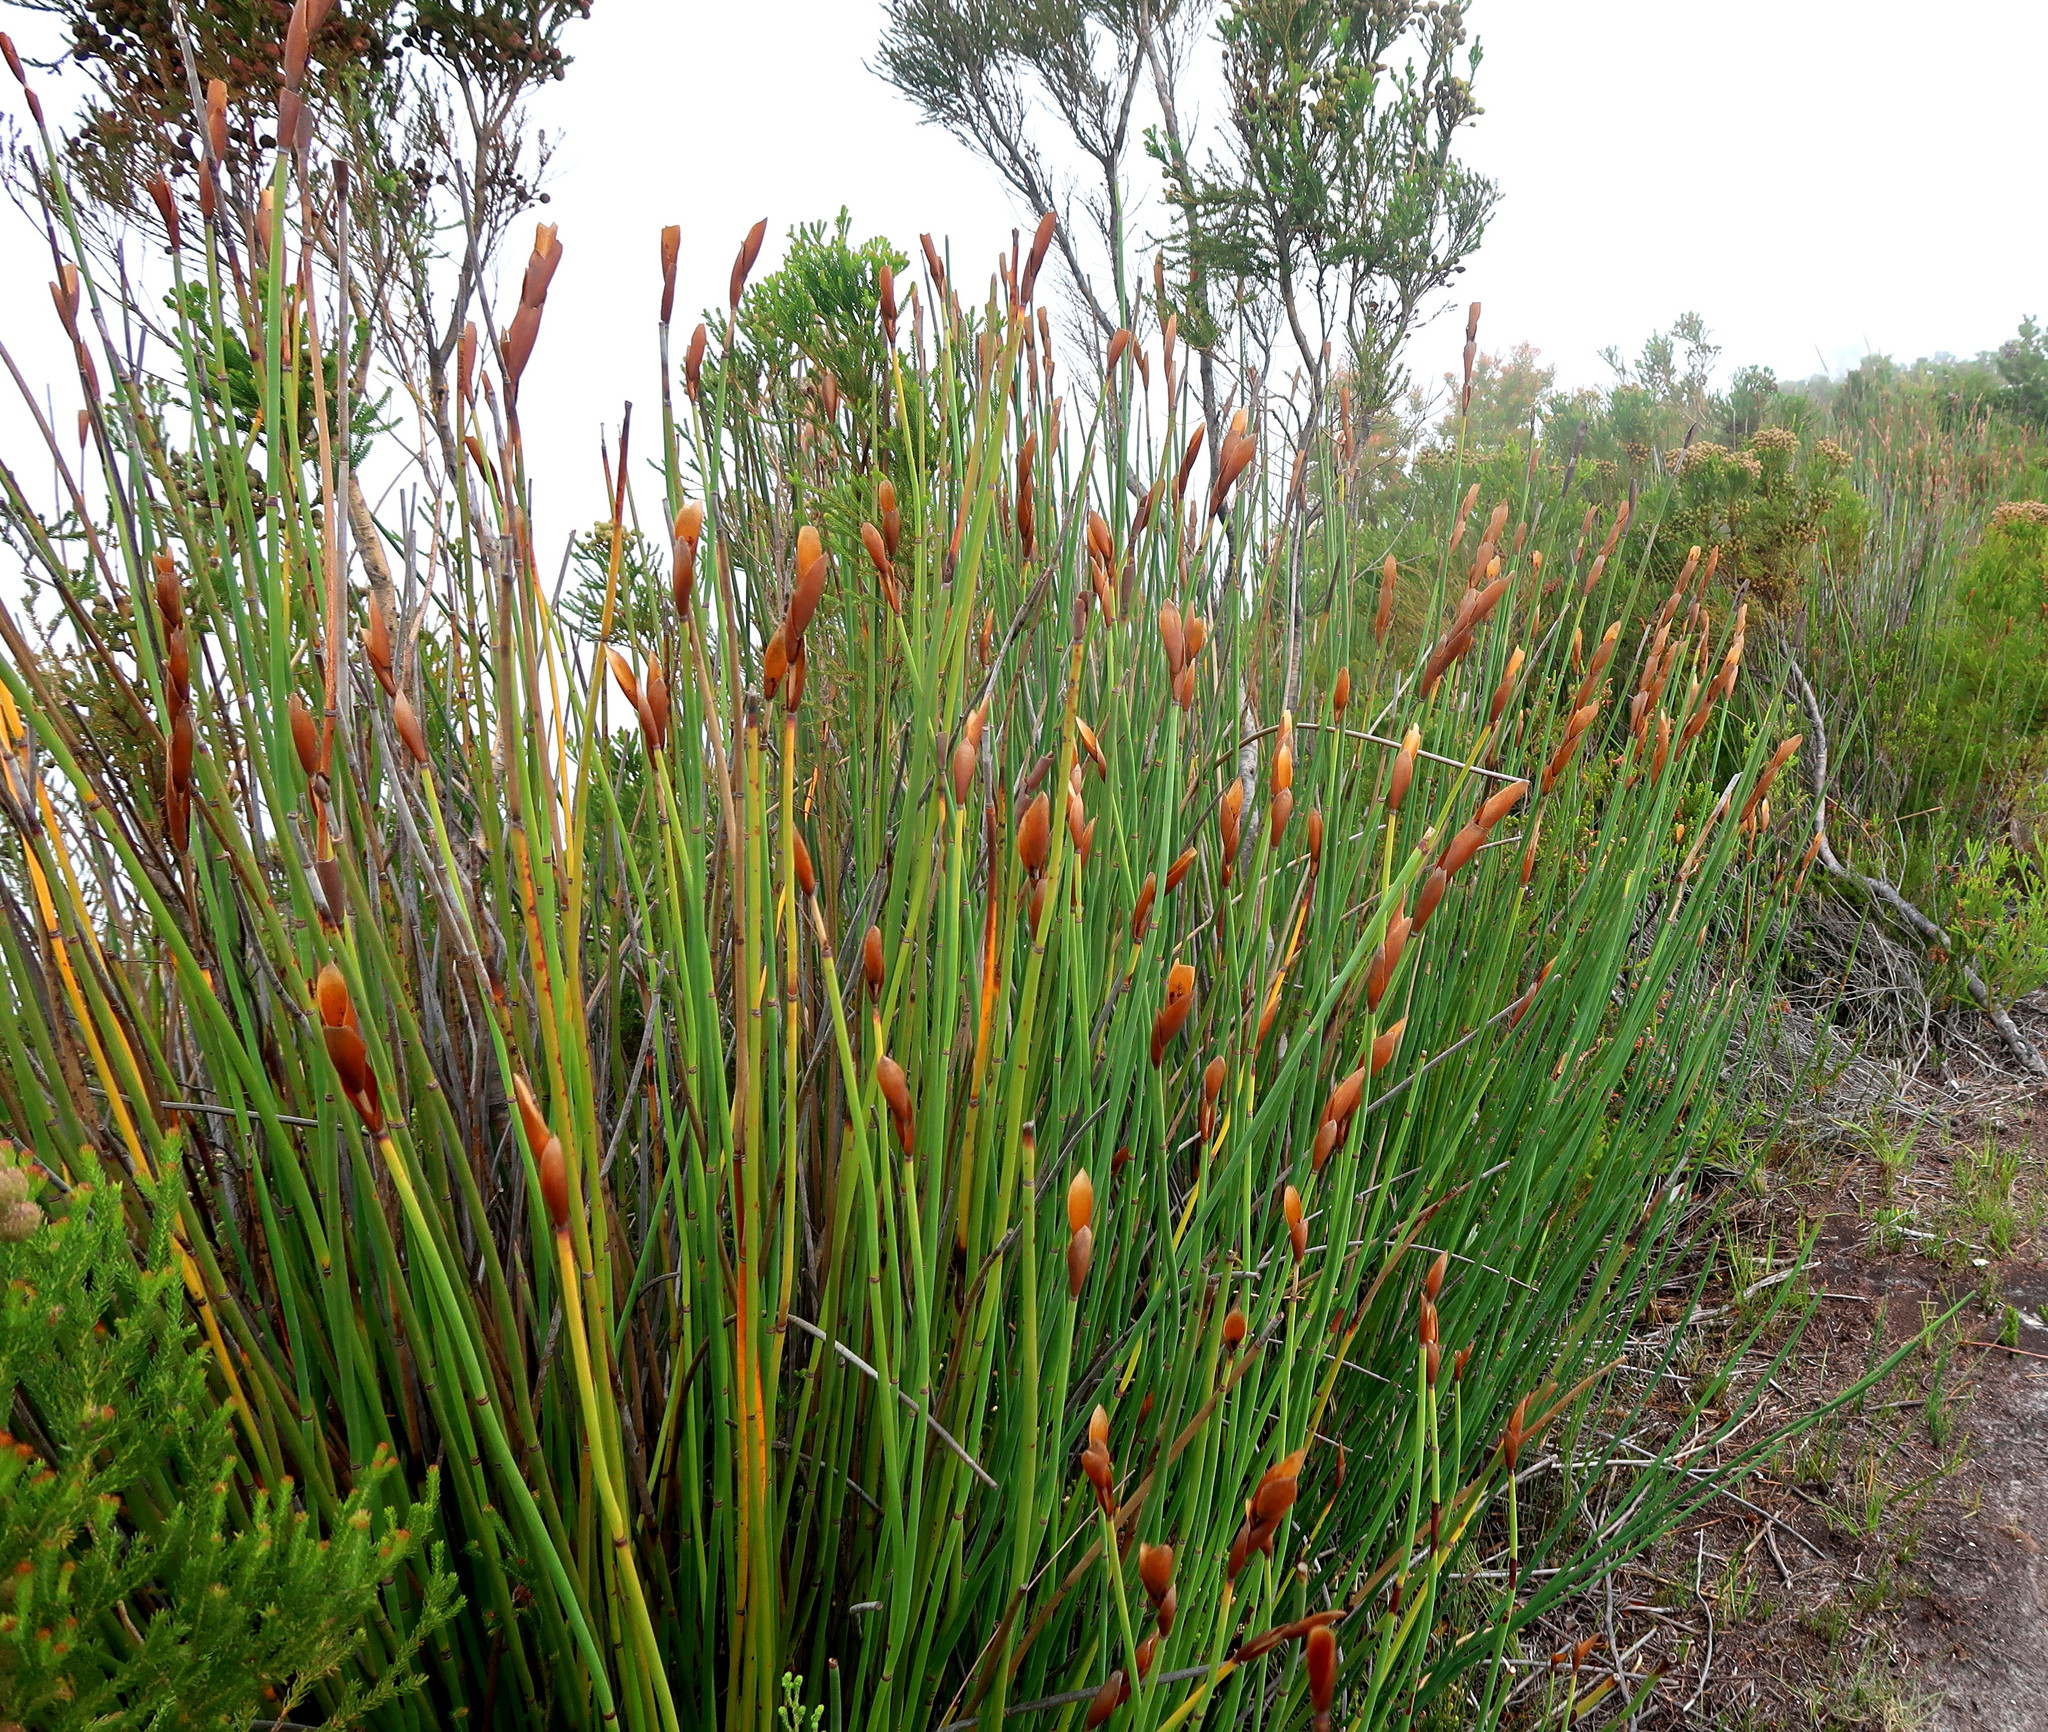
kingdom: Plantae
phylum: Tracheophyta
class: Liliopsida
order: Poales
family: Restionaceae
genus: Elegia
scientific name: Elegia thyrsoidea
